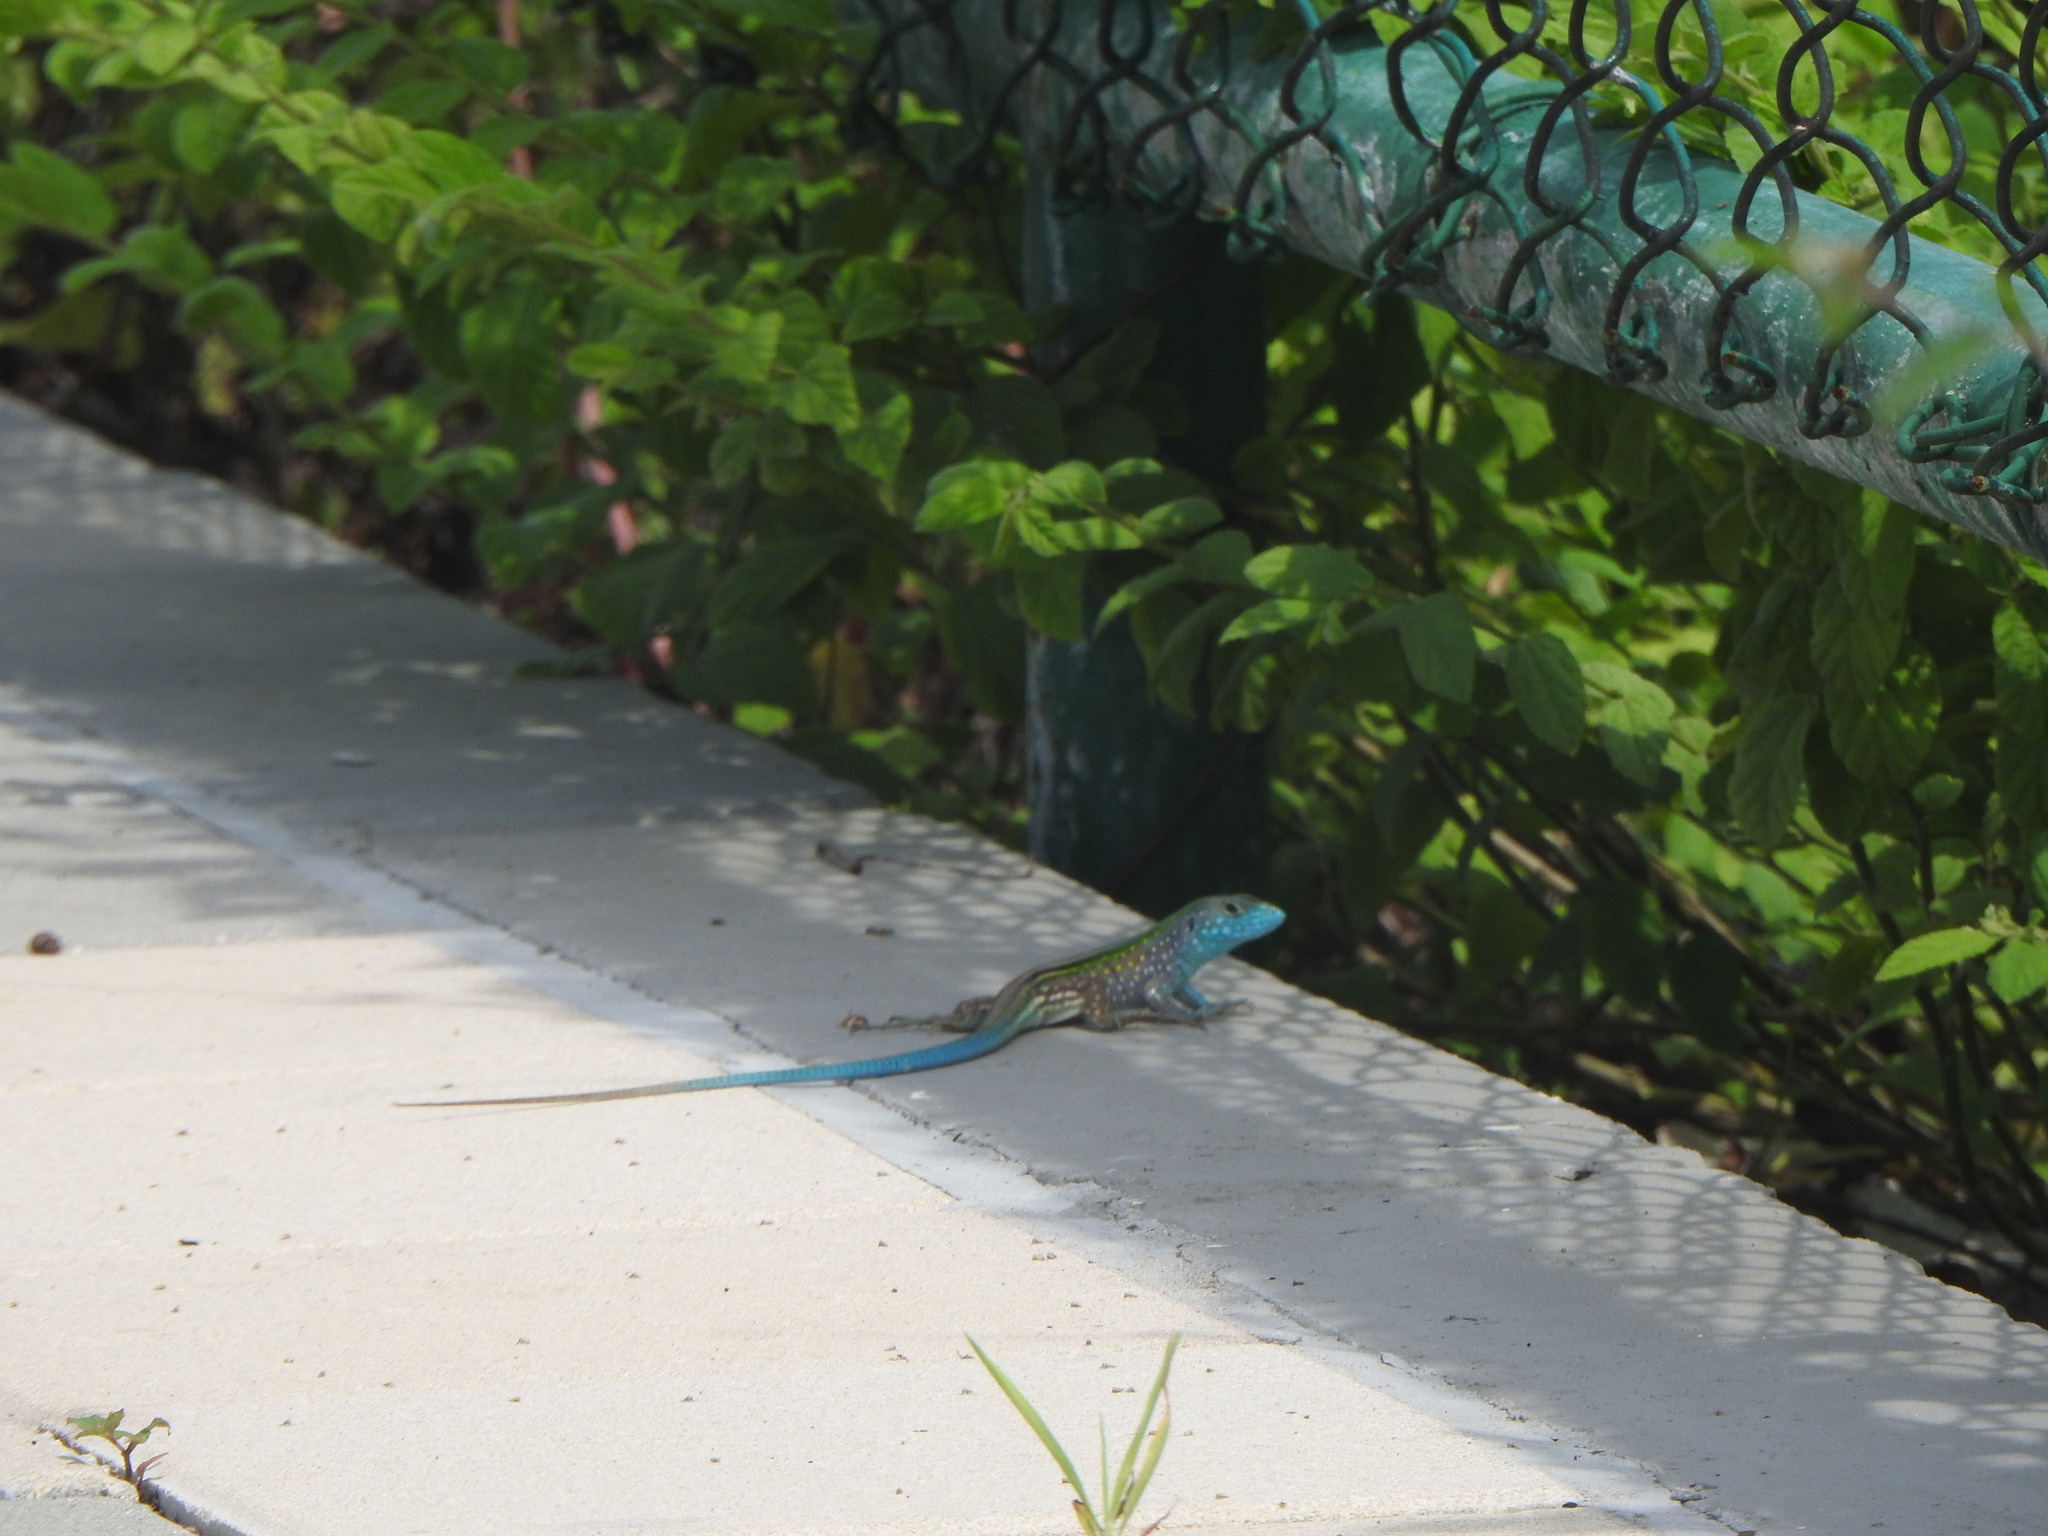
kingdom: Animalia
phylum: Chordata
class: Squamata
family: Teiidae
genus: Cnemidophorus
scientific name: Cnemidophorus gaigei
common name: Gaige’s rainbow lizard
